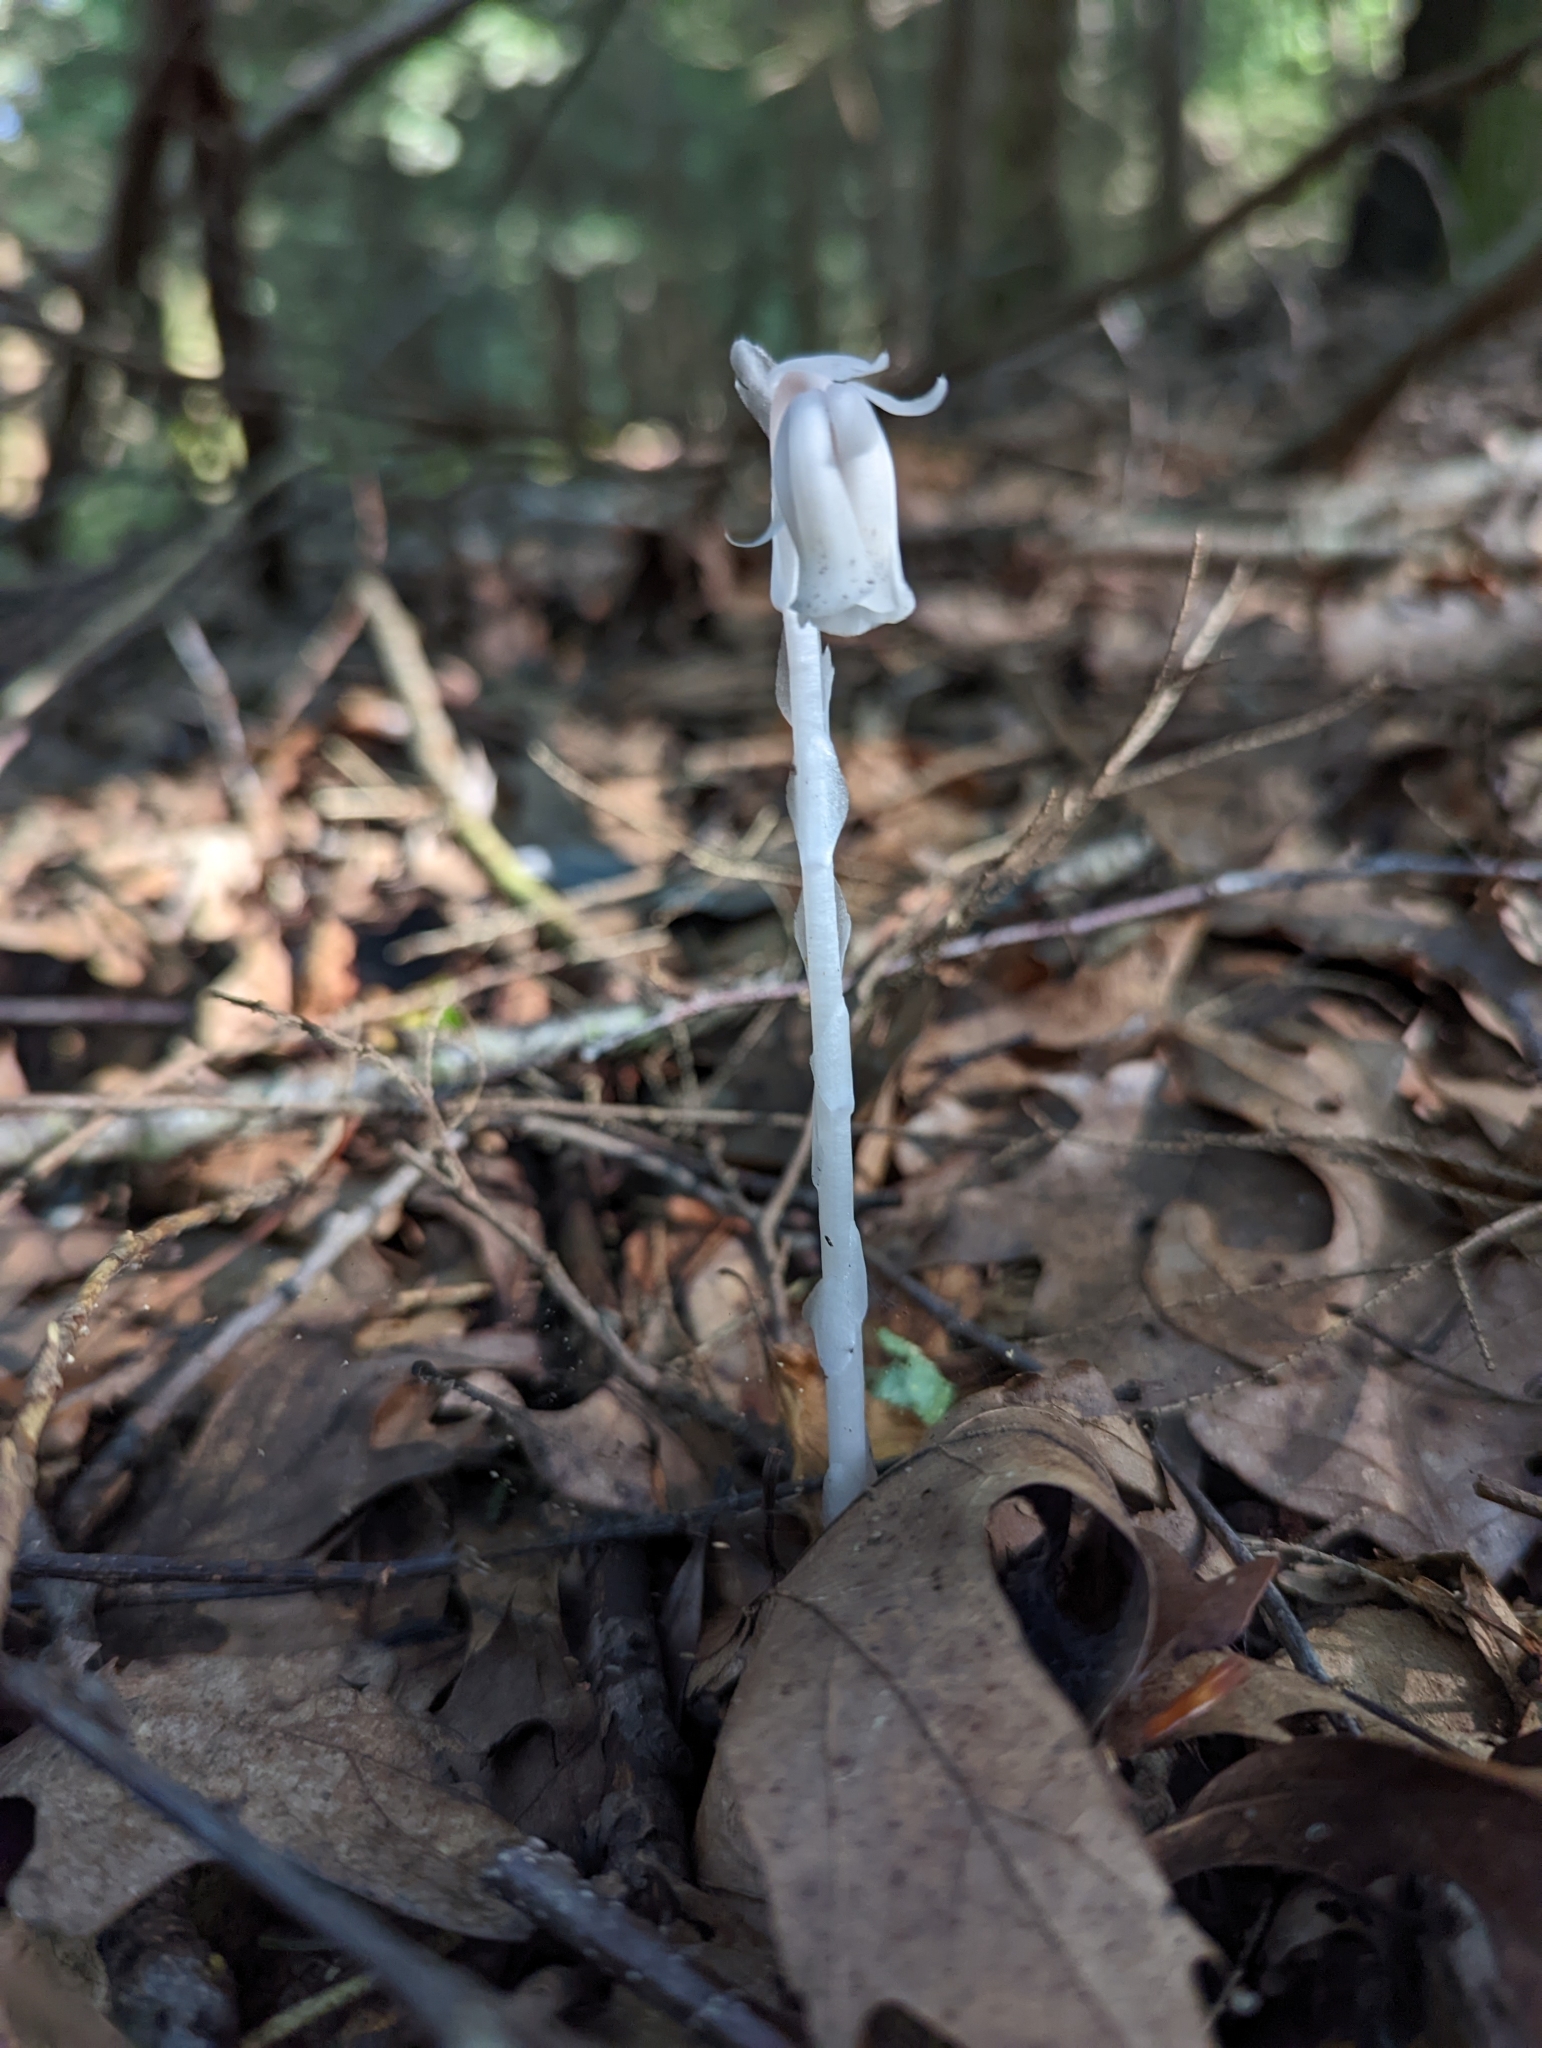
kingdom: Plantae
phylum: Tracheophyta
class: Magnoliopsida
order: Ericales
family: Ericaceae
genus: Monotropa
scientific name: Monotropa uniflora
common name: Convulsion root
